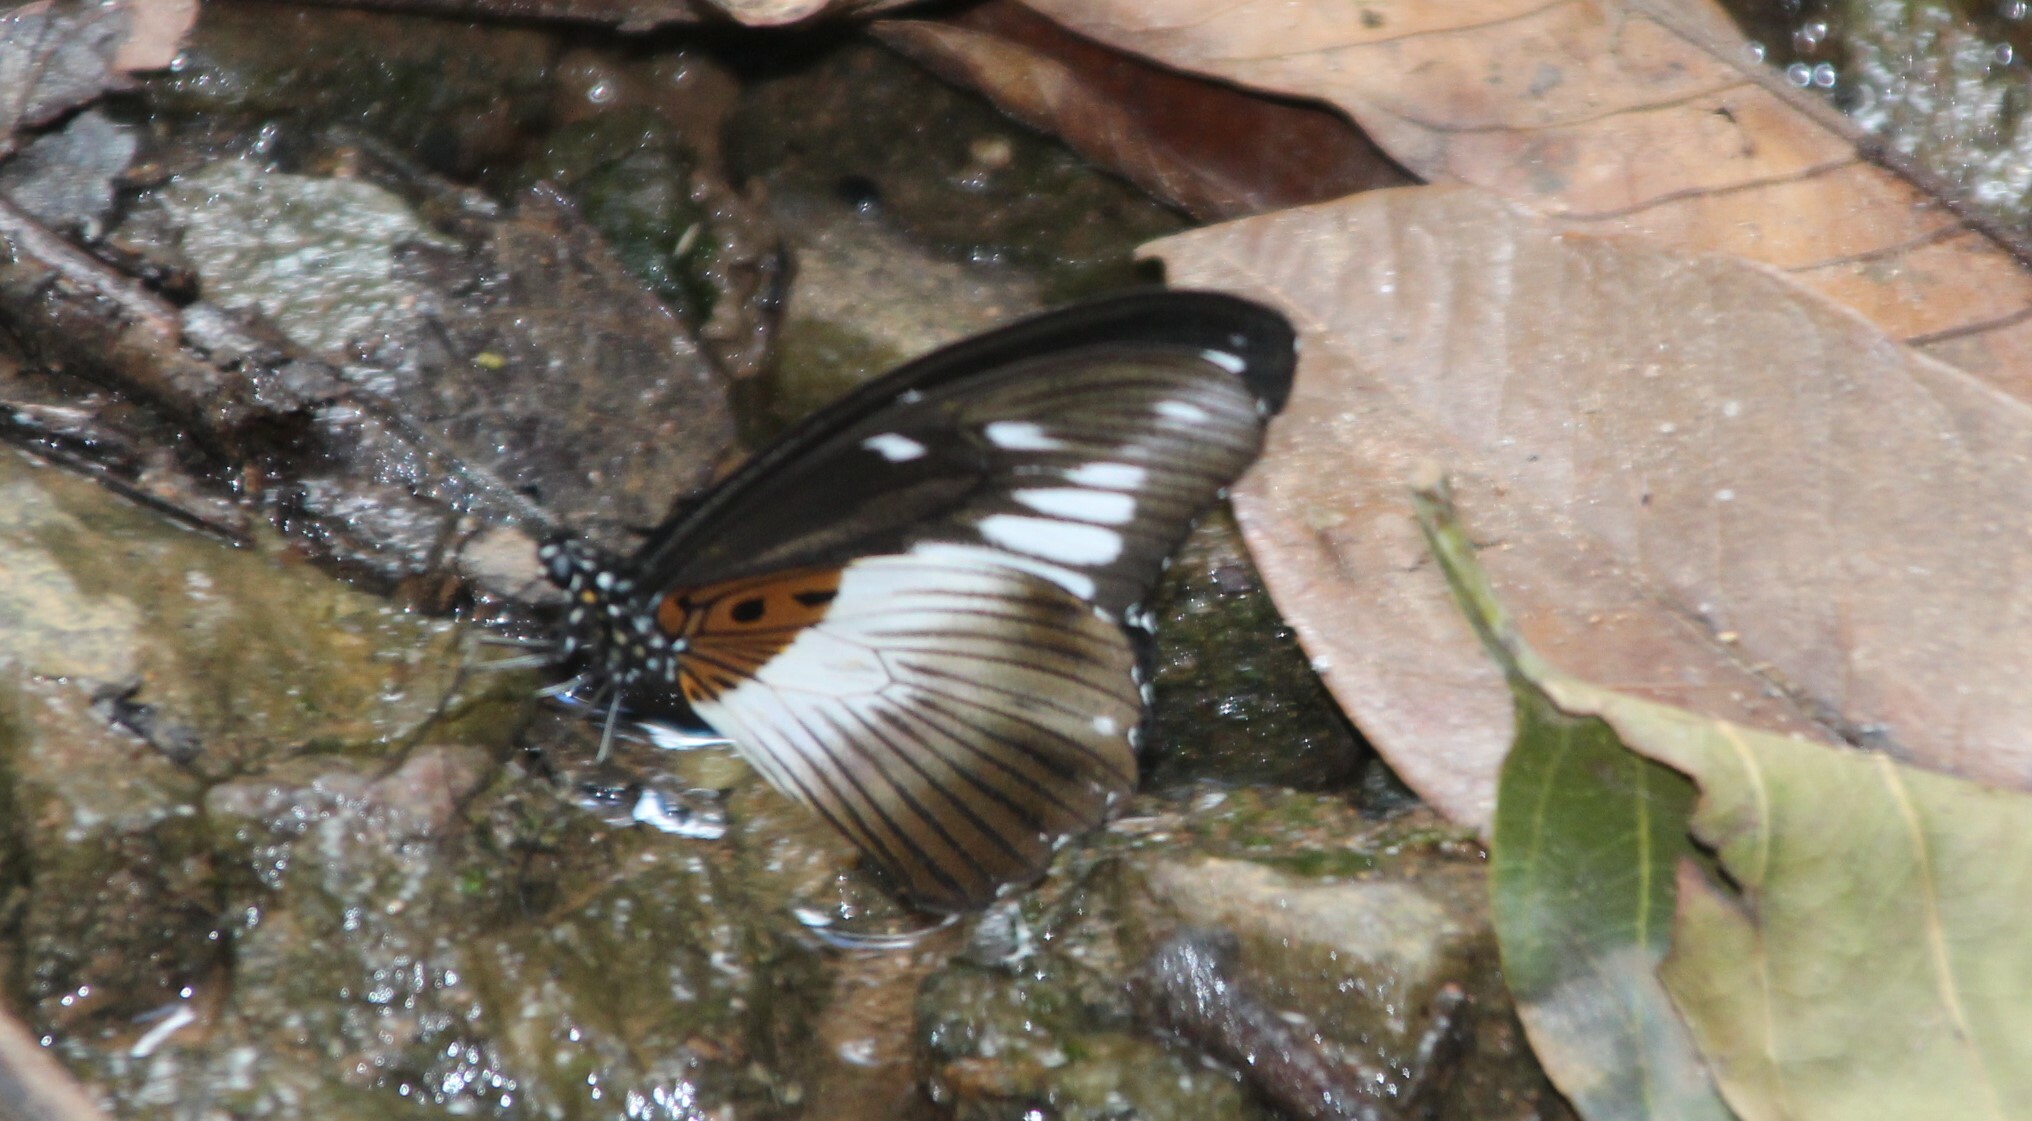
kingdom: Animalia
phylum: Arthropoda
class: Insecta
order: Lepidoptera
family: Papilionidae
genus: Papilio
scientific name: Papilio echerioides
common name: White-banded swallowtail
